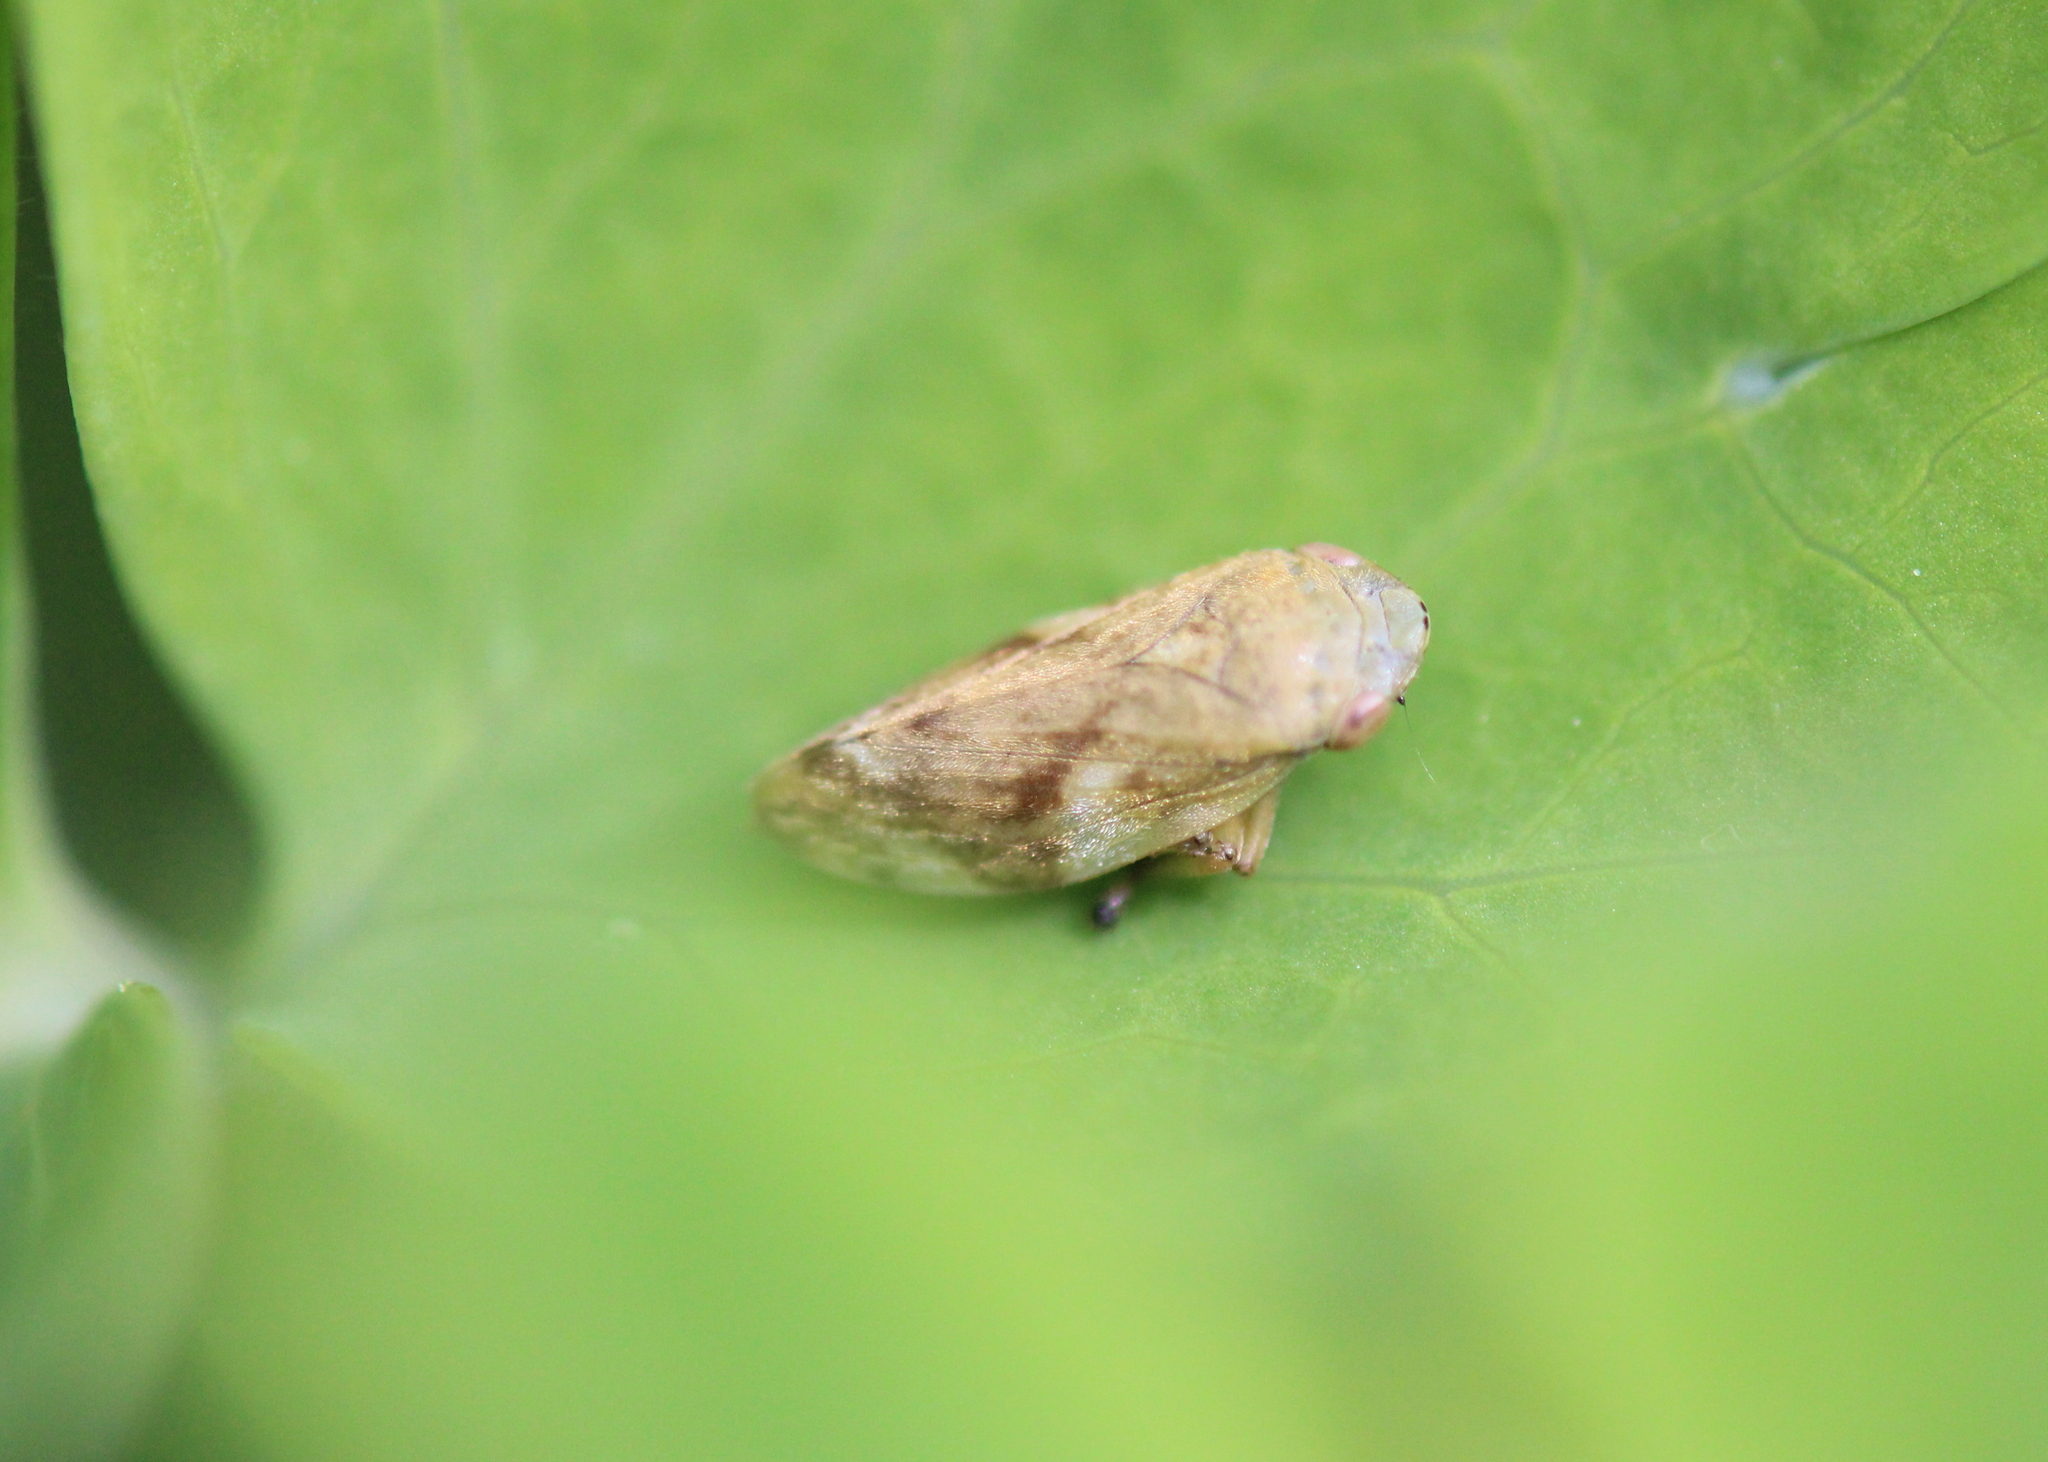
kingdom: Animalia
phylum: Arthropoda
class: Insecta
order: Hemiptera
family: Aphrophoridae
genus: Philaenus
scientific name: Philaenus spumarius
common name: Meadow spittlebug
